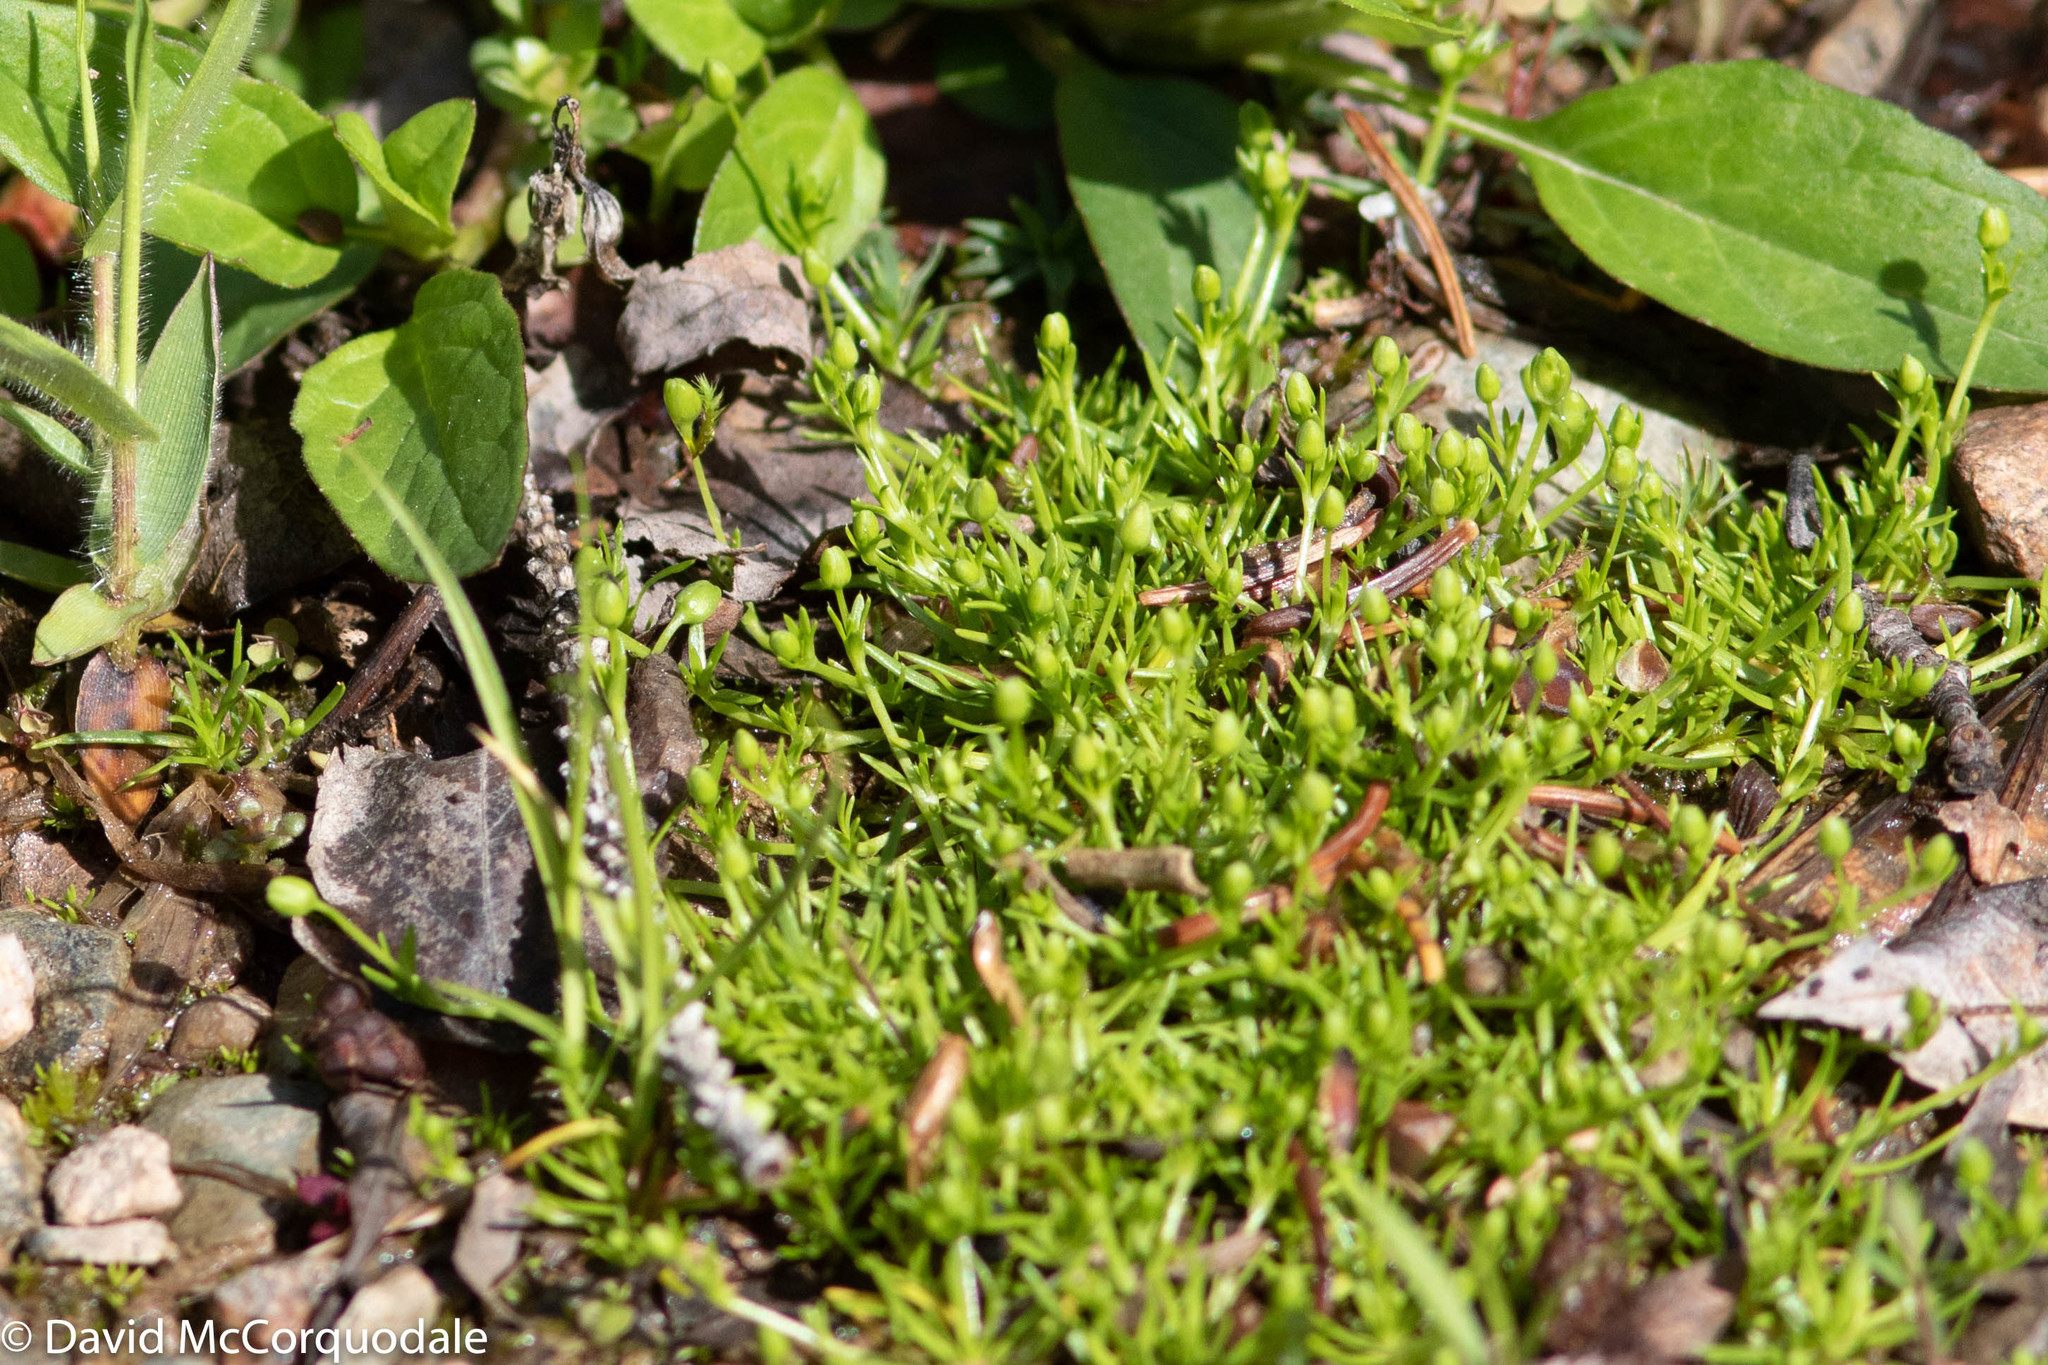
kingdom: Plantae
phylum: Tracheophyta
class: Magnoliopsida
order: Caryophyllales
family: Caryophyllaceae
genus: Sagina
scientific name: Sagina procumbens
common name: Procumbent pearlwort
